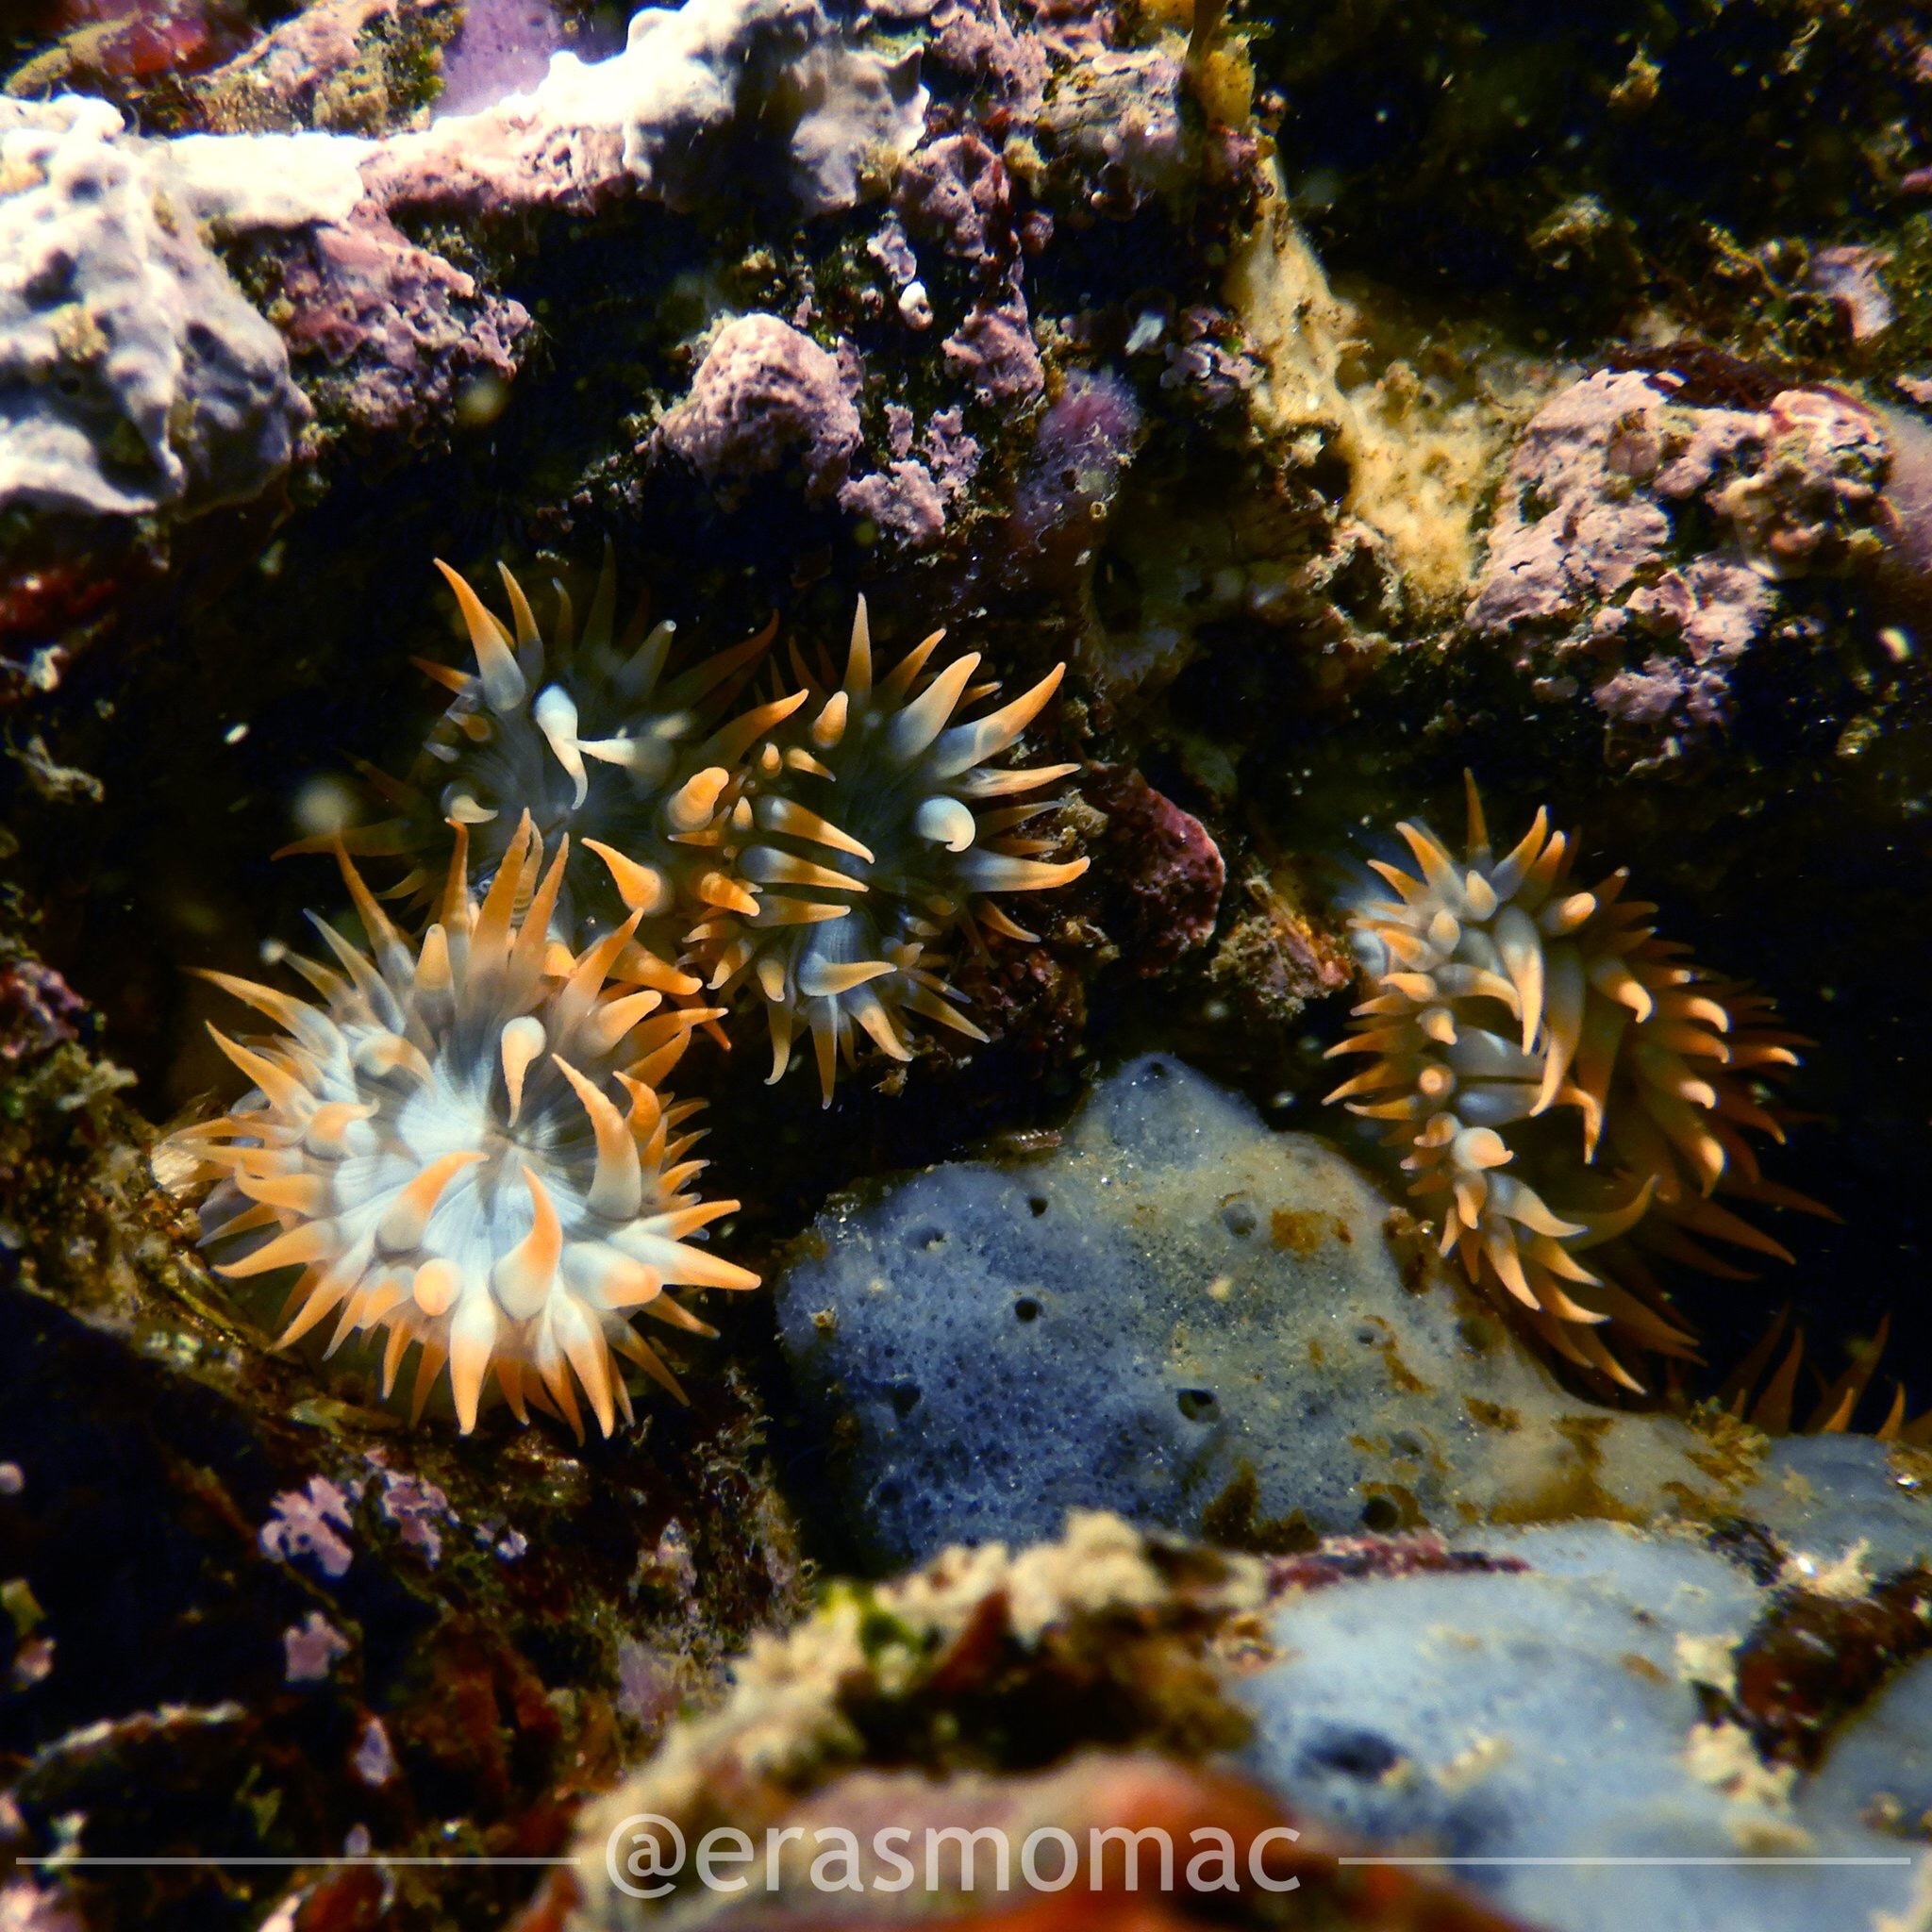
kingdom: Animalia
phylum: Cnidaria
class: Anthozoa
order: Actiniaria
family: Sagartiidae
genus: Anthothoe
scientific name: Anthothoe chilensis
